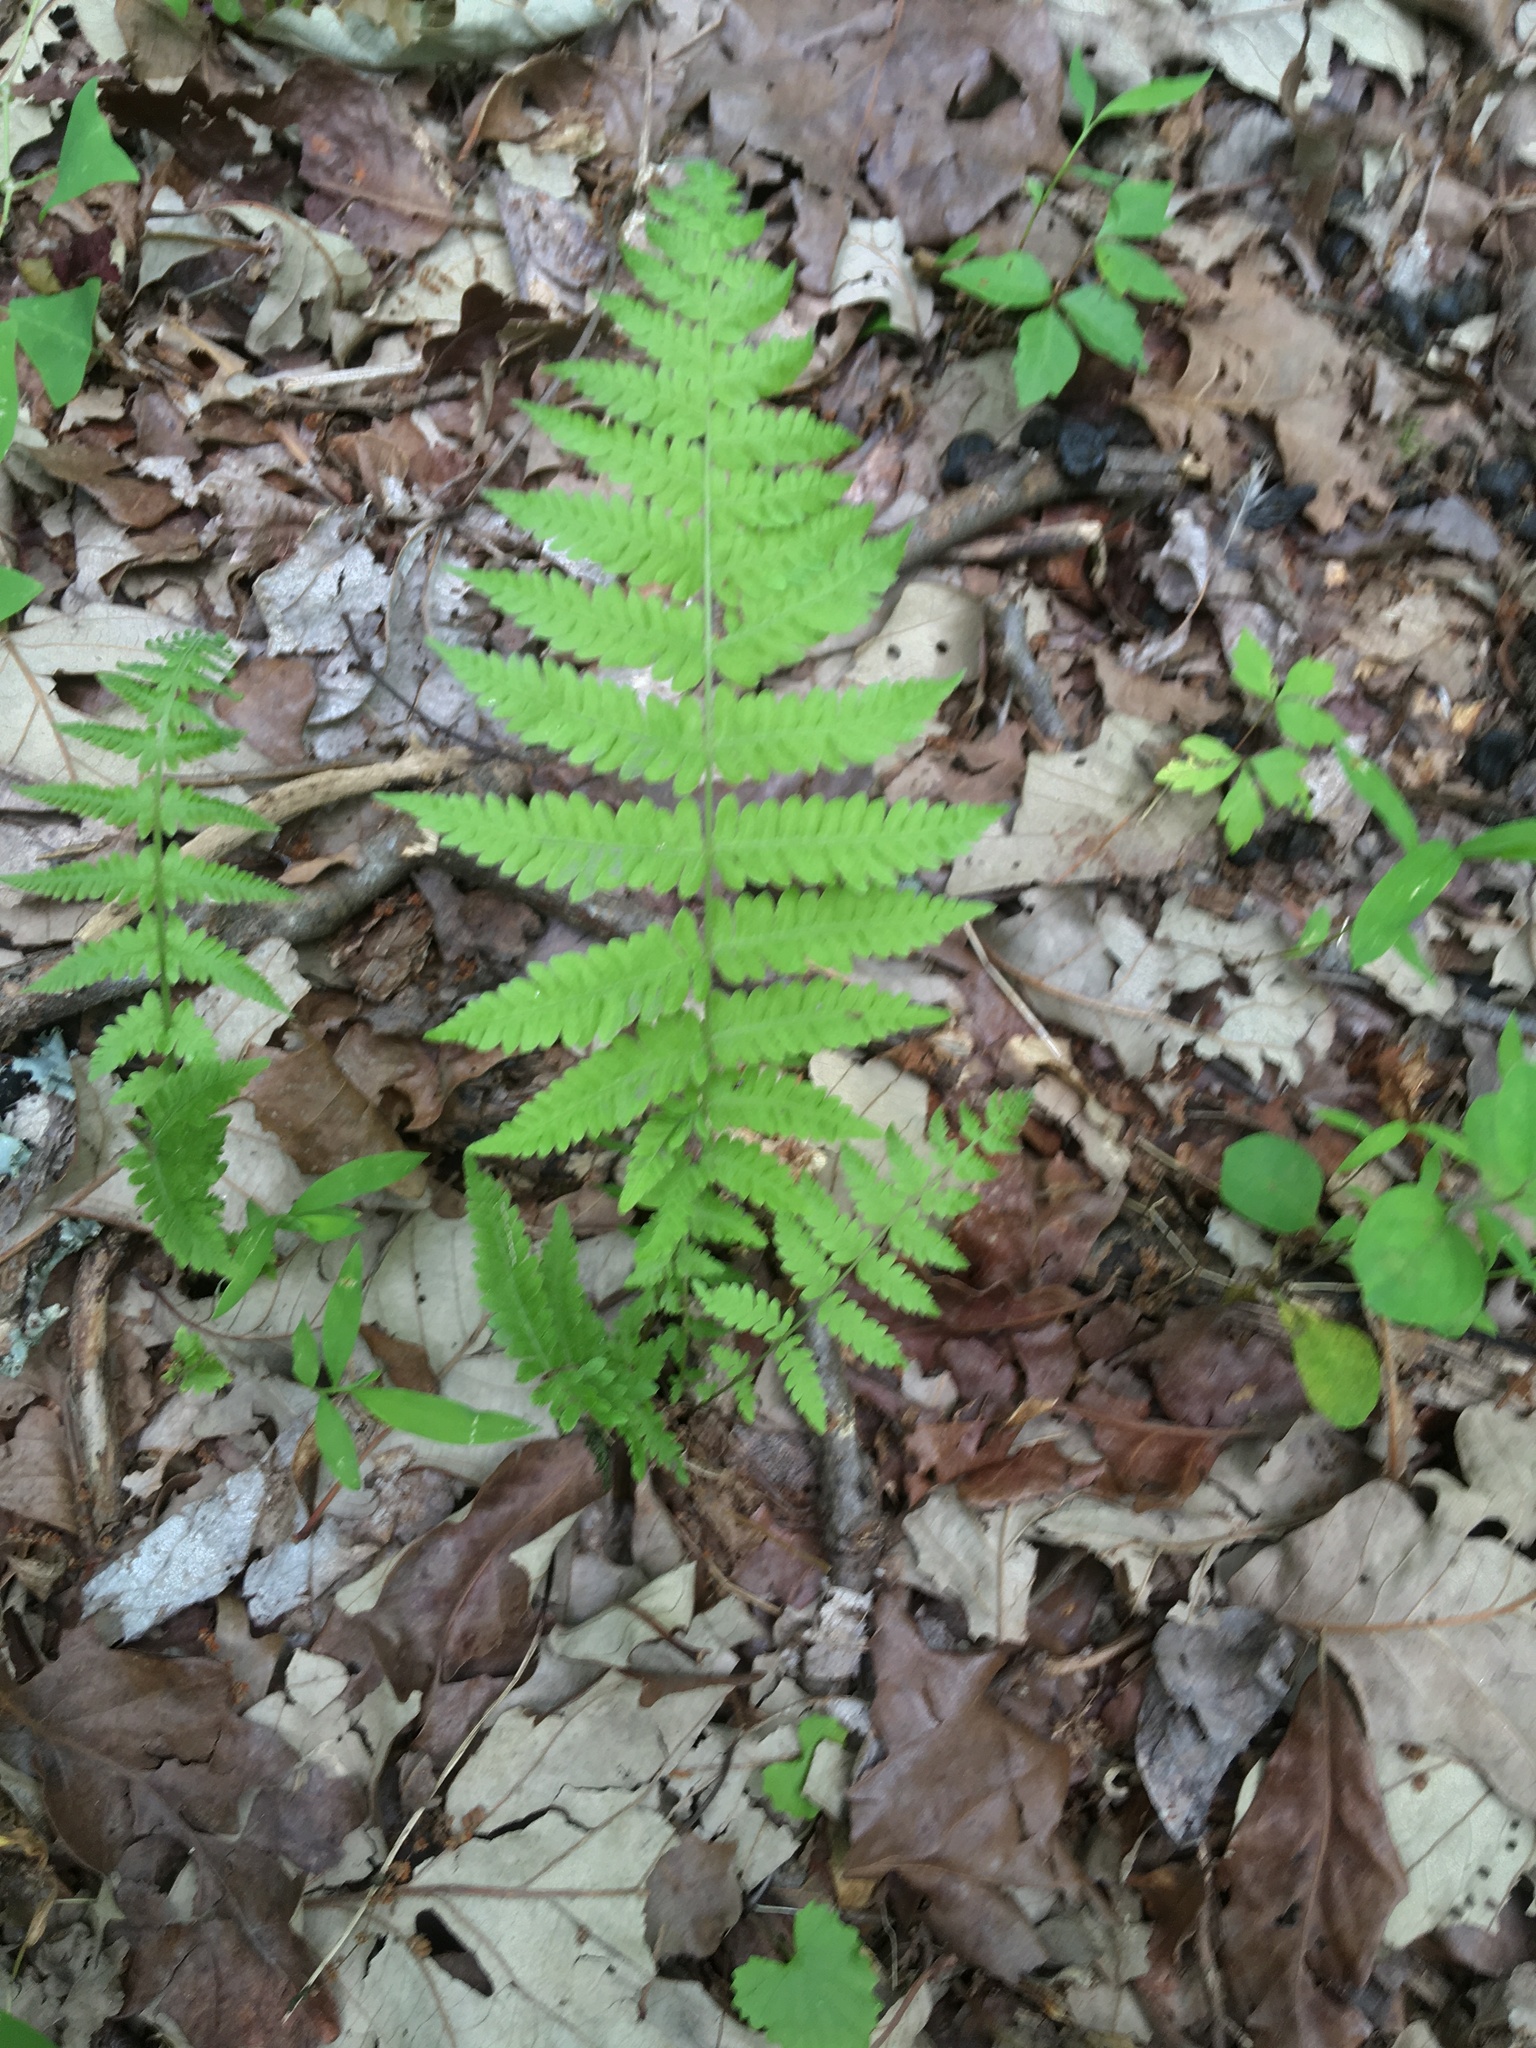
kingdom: Plantae
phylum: Tracheophyta
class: Polypodiopsida
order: Polypodiales
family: Thelypteridaceae
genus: Amauropelta
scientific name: Amauropelta noveboracensis
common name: New york fern
